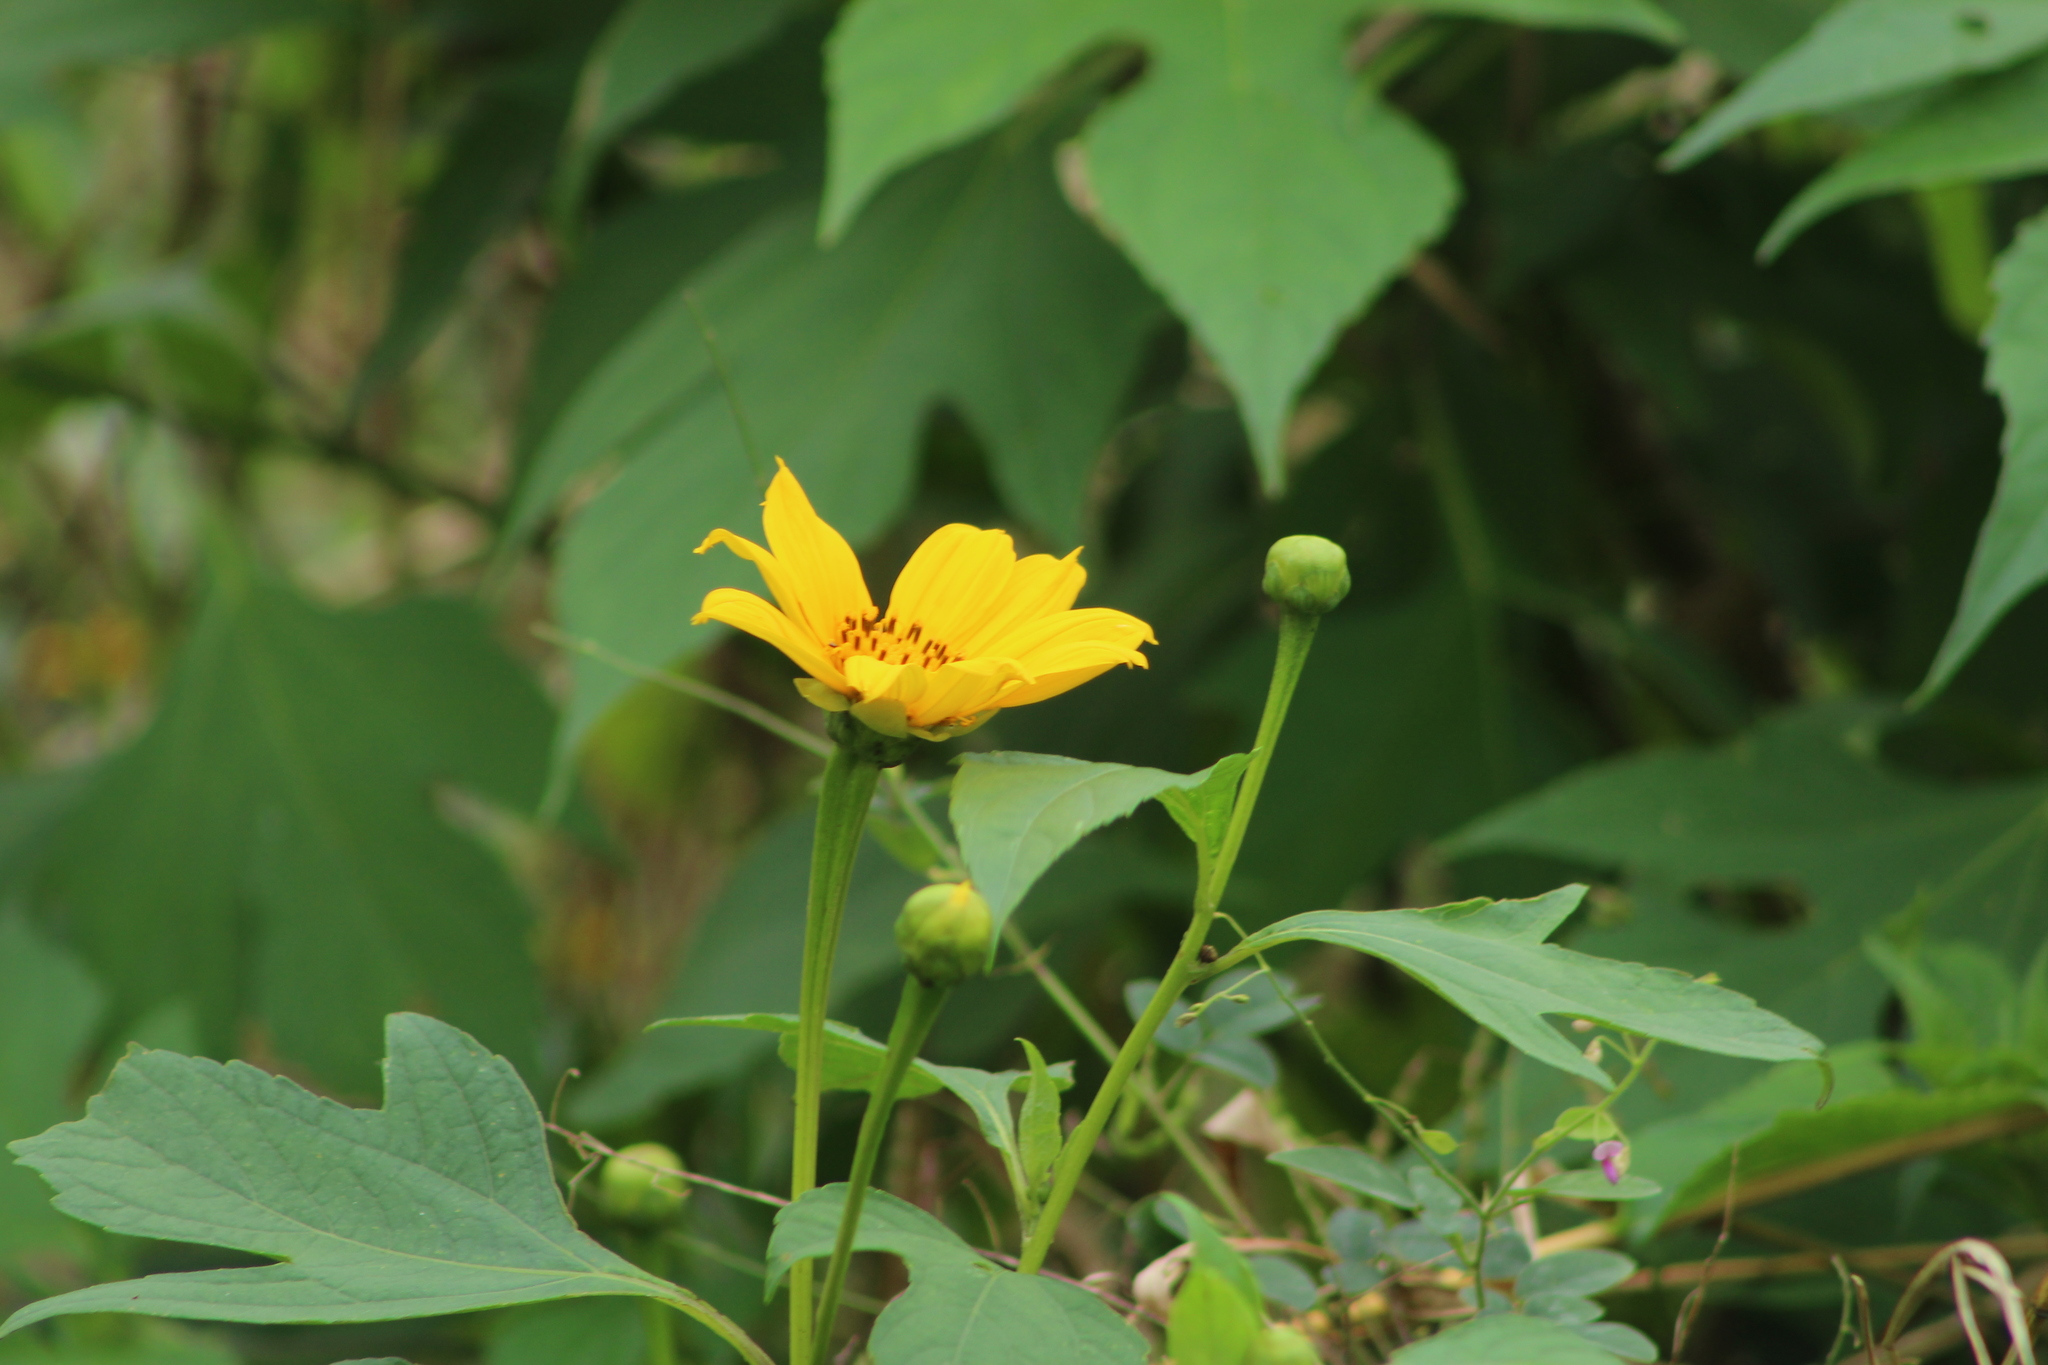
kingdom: Plantae
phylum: Tracheophyta
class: Magnoliopsida
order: Asterales
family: Asteraceae
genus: Tithonia
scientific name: Tithonia diversifolia
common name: Tree marigold
